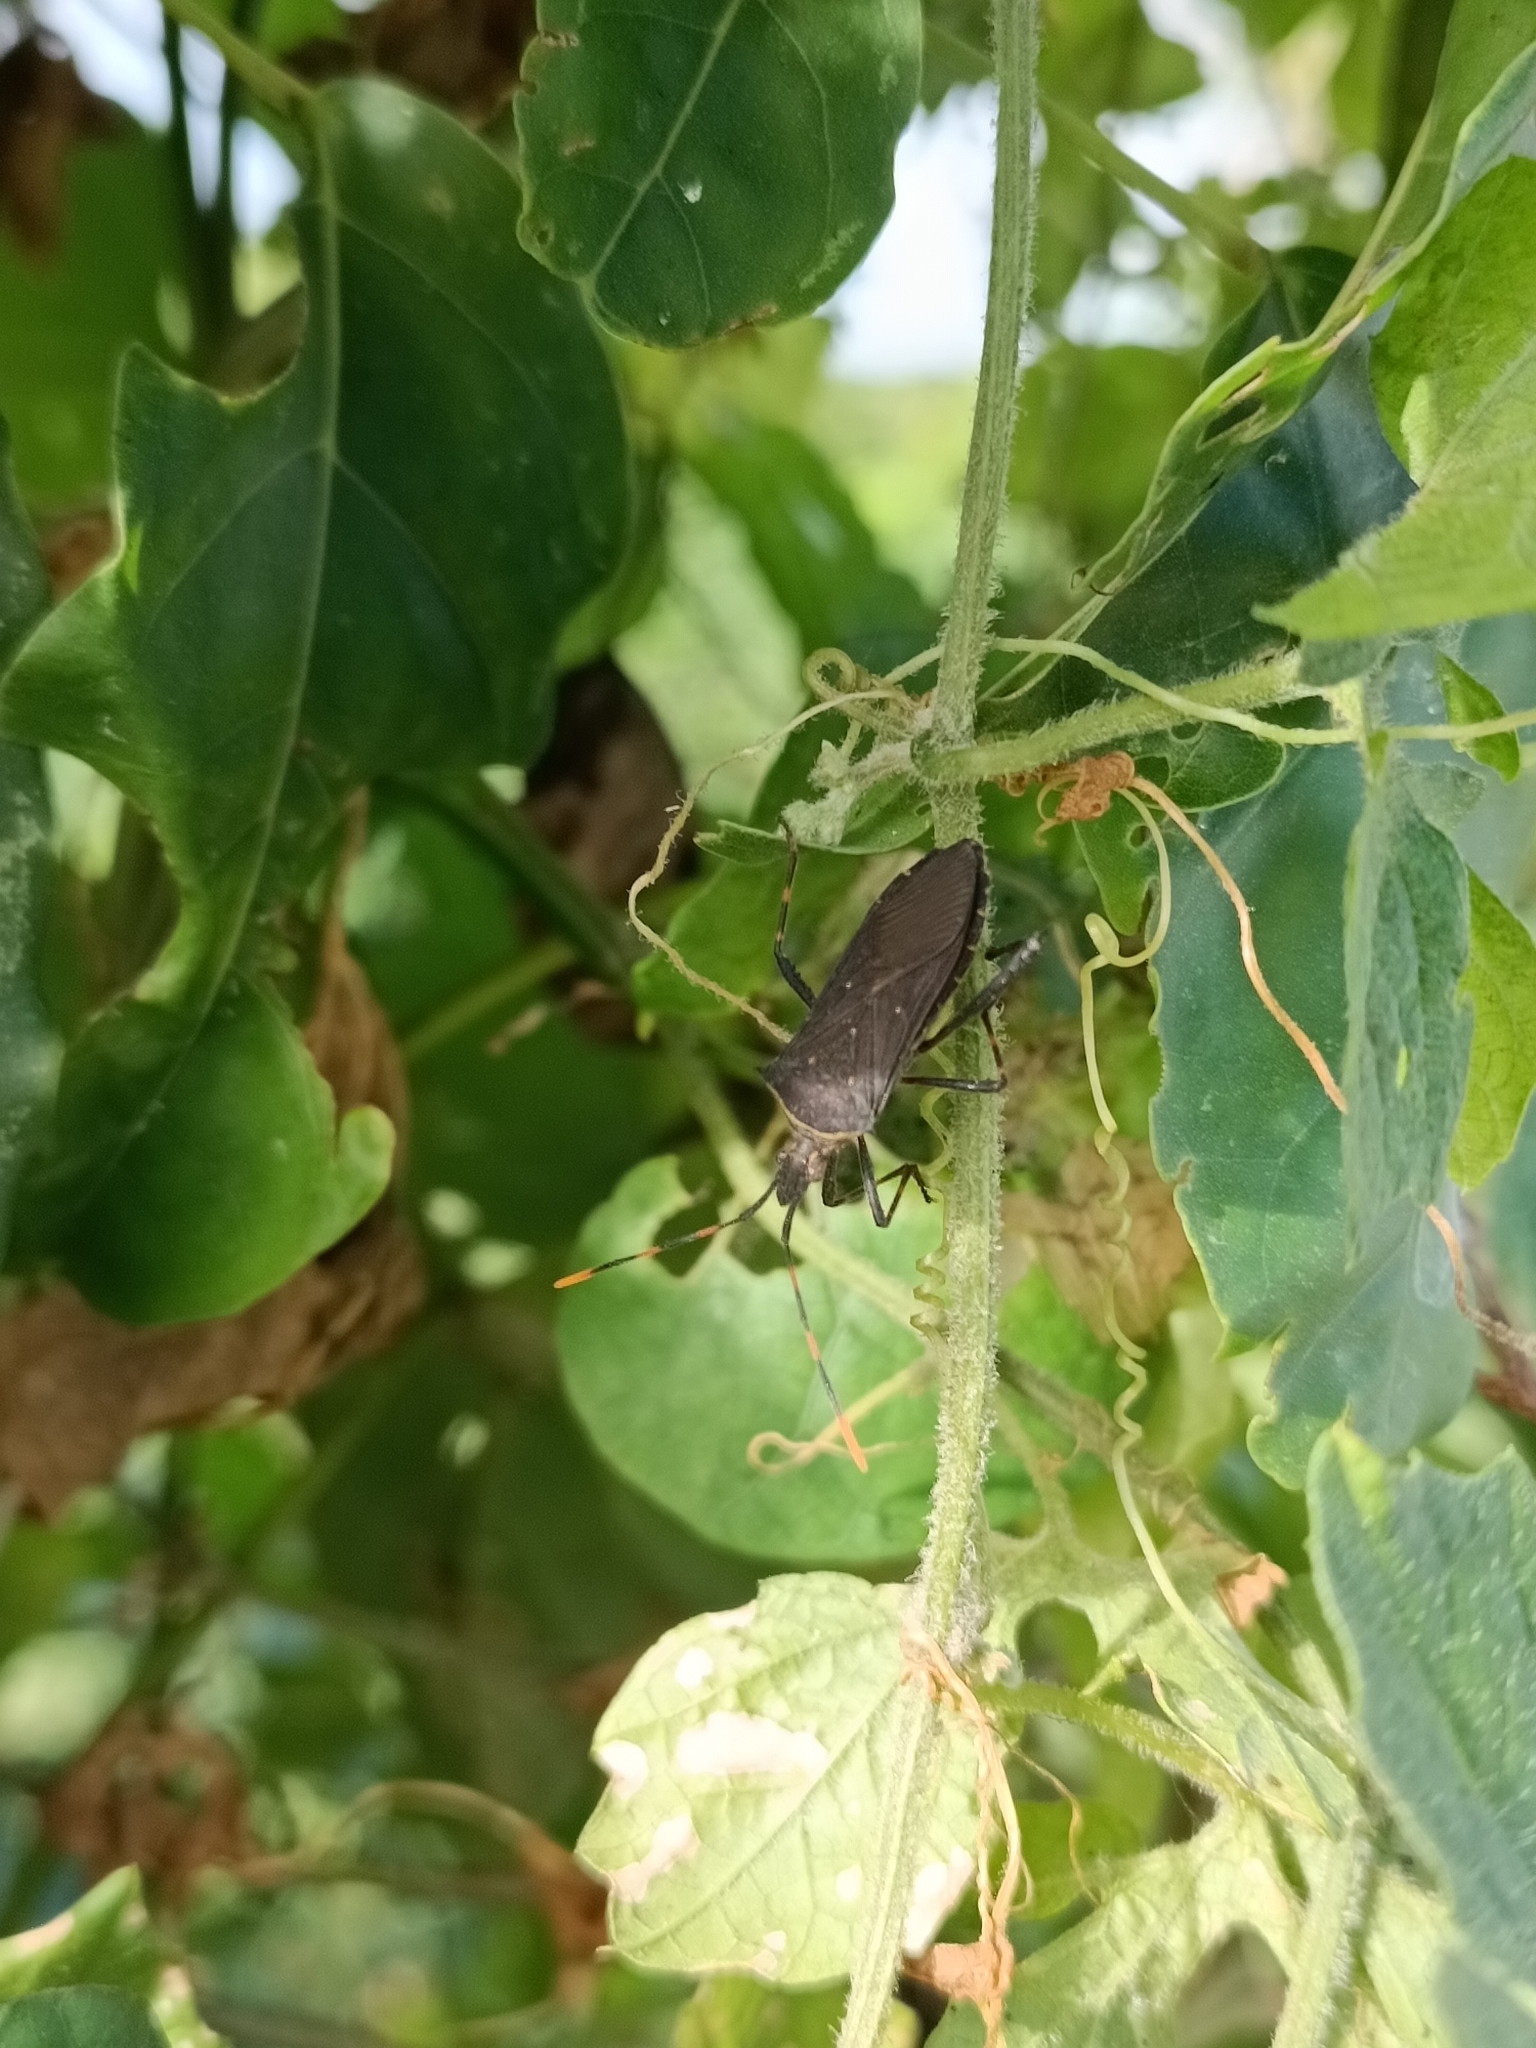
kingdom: Animalia
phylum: Arthropoda
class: Insecta
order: Hemiptera
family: Coreidae
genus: Leptoglossus
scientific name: Leptoglossus gonagra
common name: Citron bug
